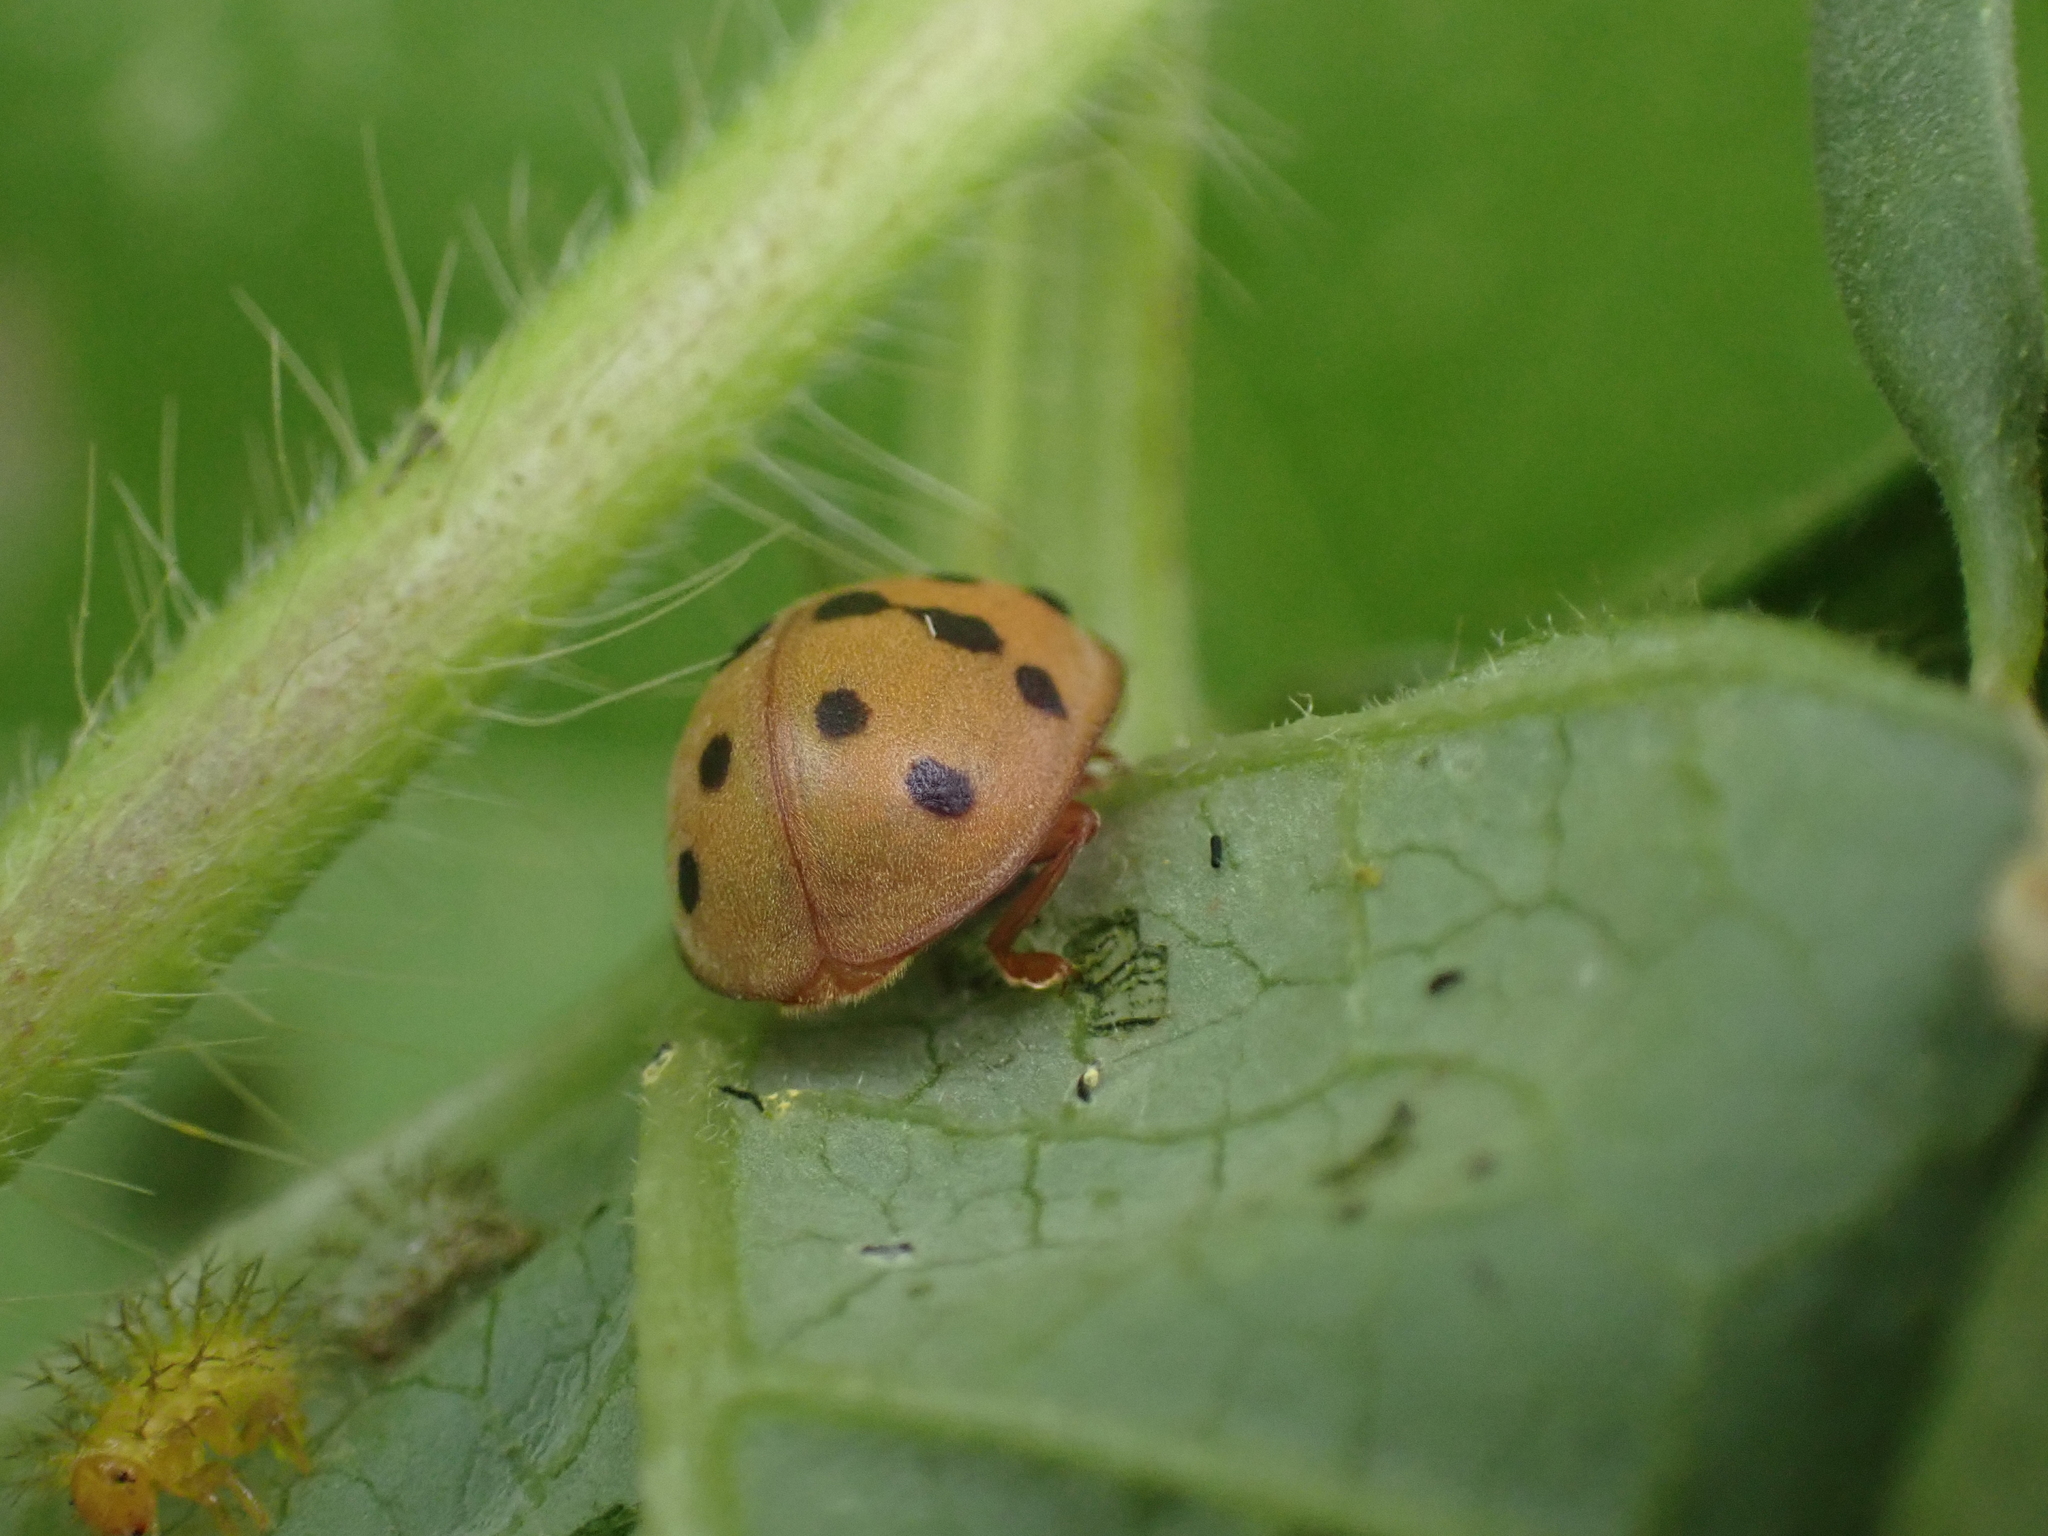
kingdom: Animalia
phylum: Arthropoda
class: Insecta
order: Coleoptera
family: Coccinellidae
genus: Epilachna
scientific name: Epilachna varivestis
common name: Ladybird beetle
